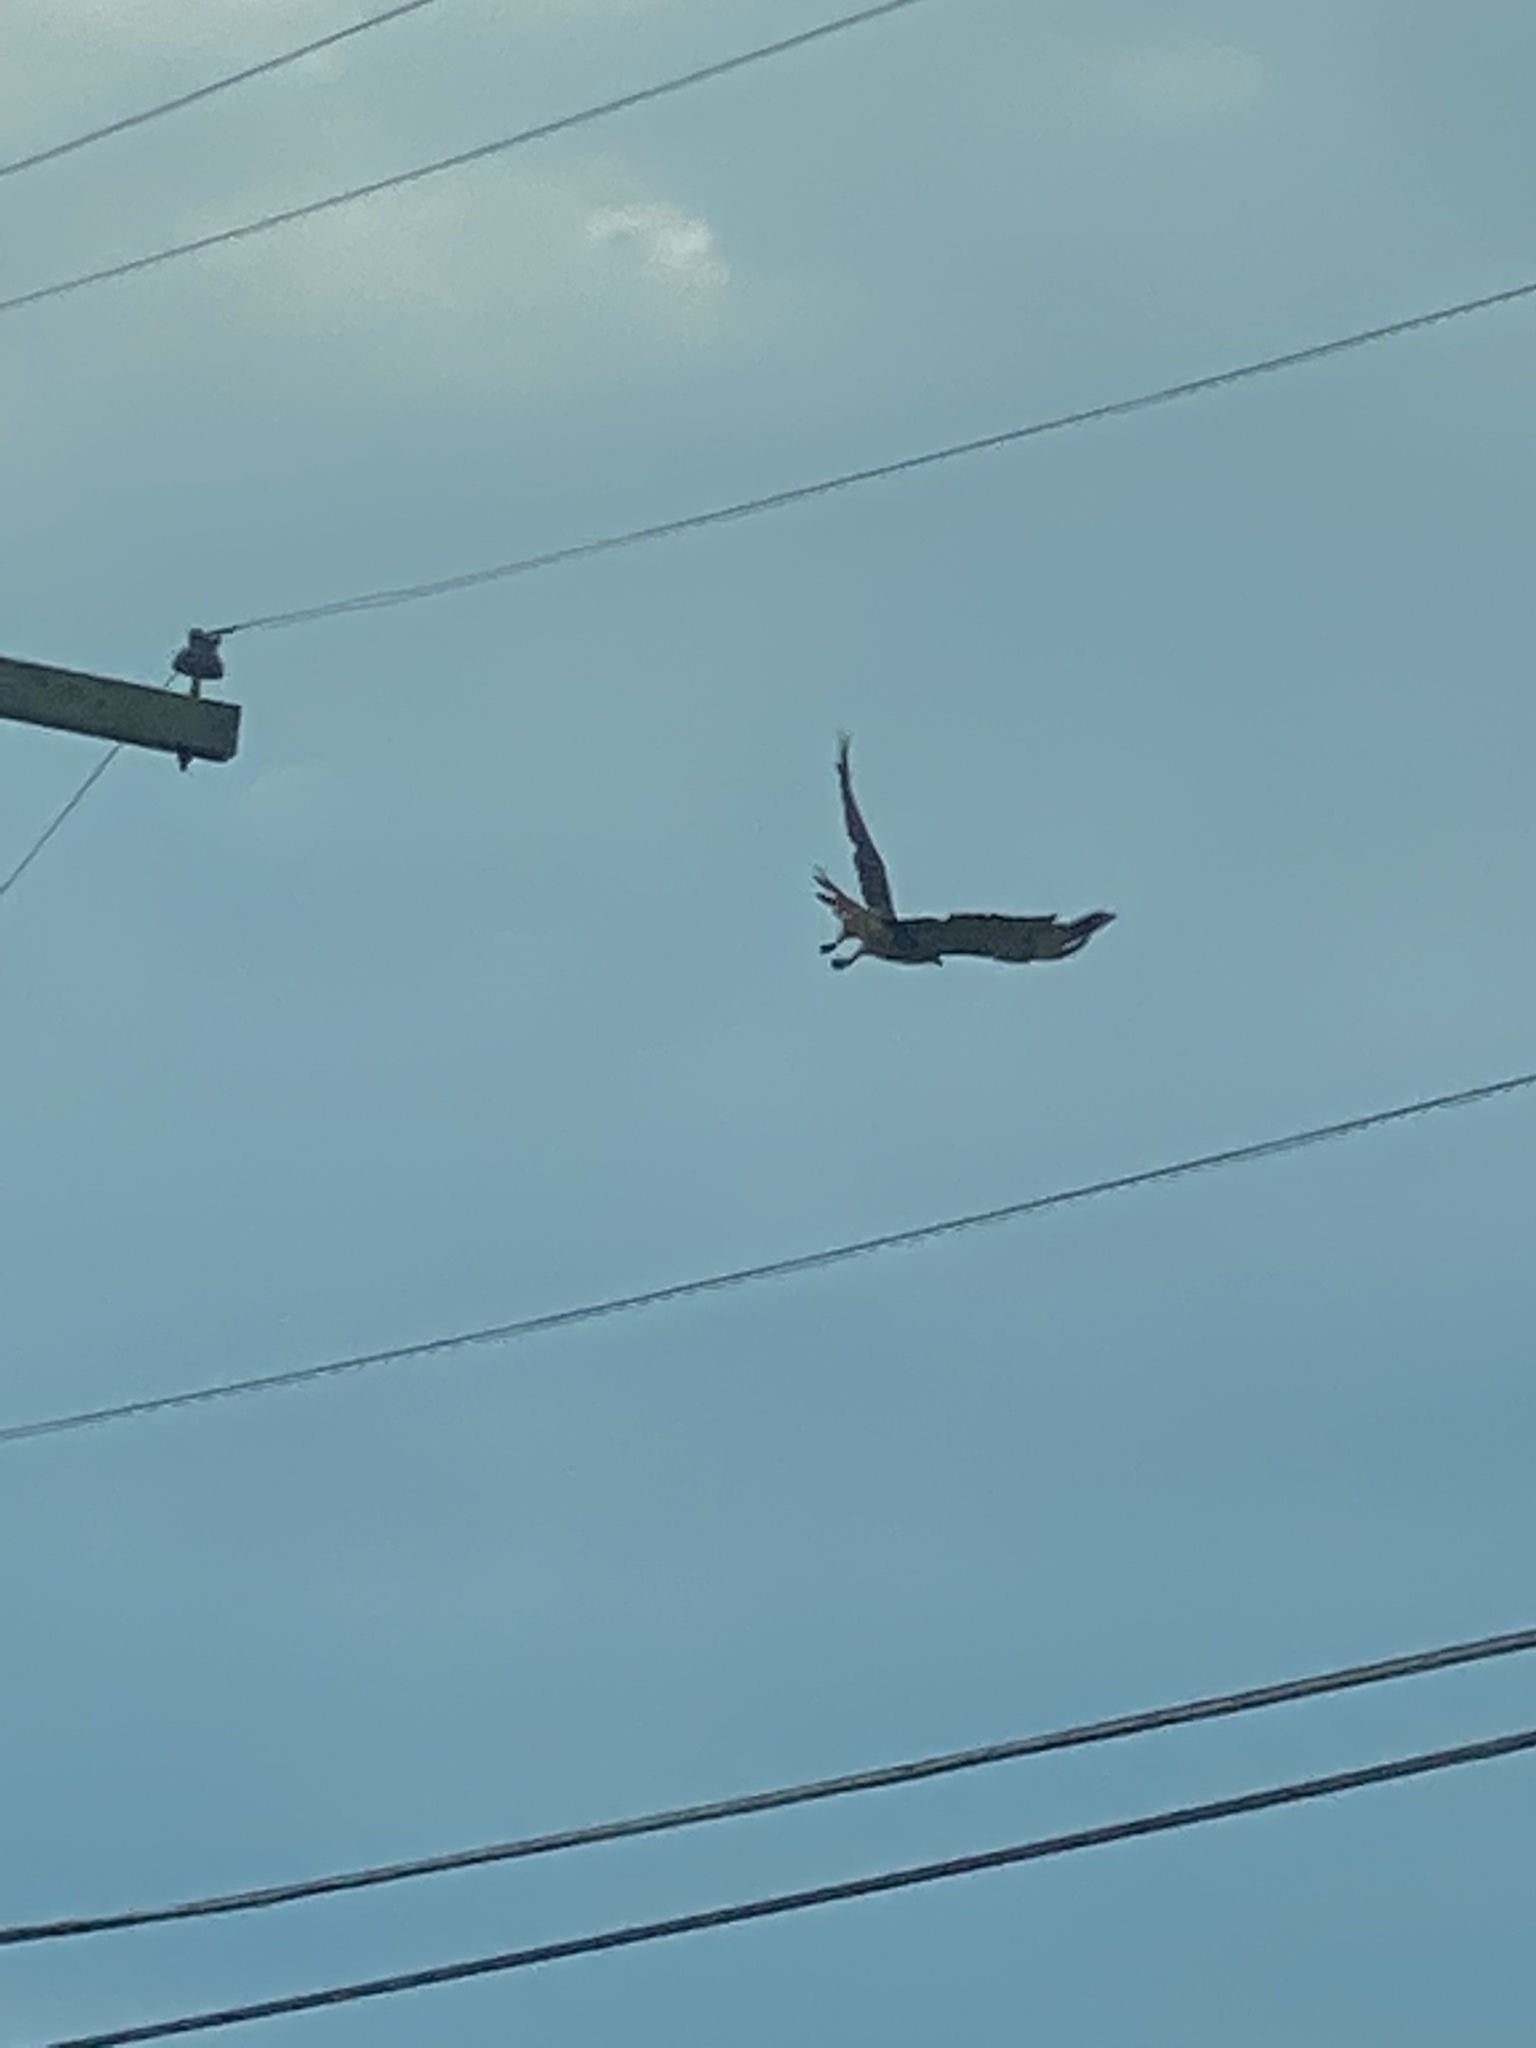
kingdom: Animalia
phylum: Chordata
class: Aves
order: Accipitriformes
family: Accipitridae
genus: Buteo
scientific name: Buteo jamaicensis
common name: Red-tailed hawk
